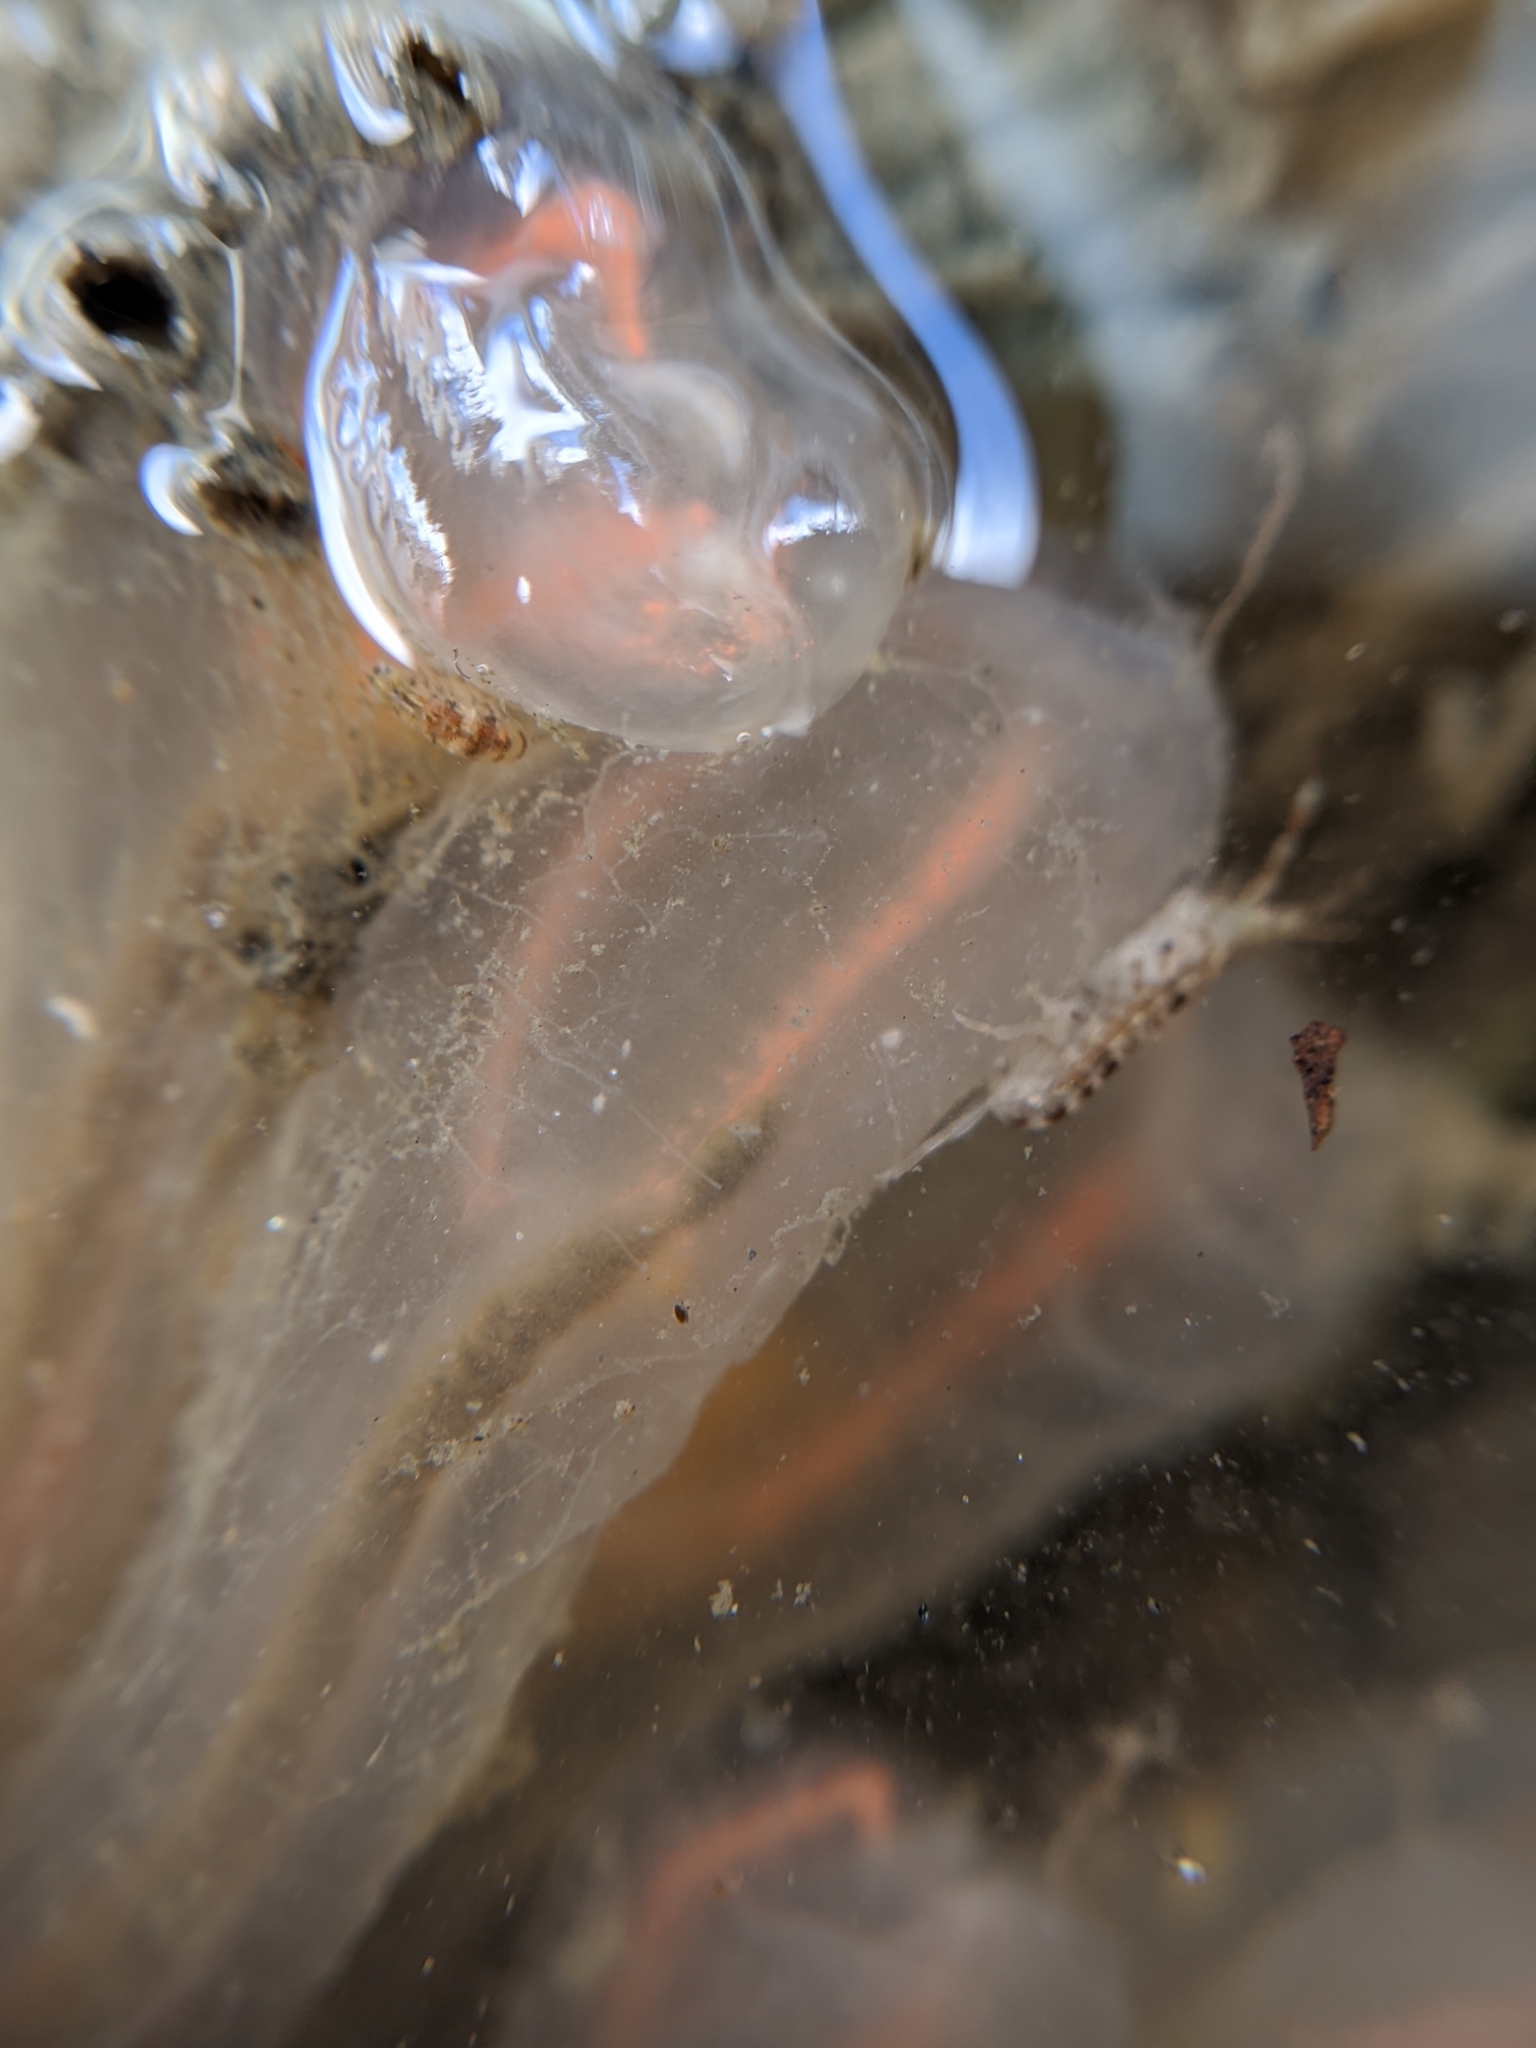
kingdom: Animalia
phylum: Chordata
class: Ascidiacea
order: Aplousobranchia
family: Clavelinidae
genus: Clavelina
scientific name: Clavelina huntsmani
